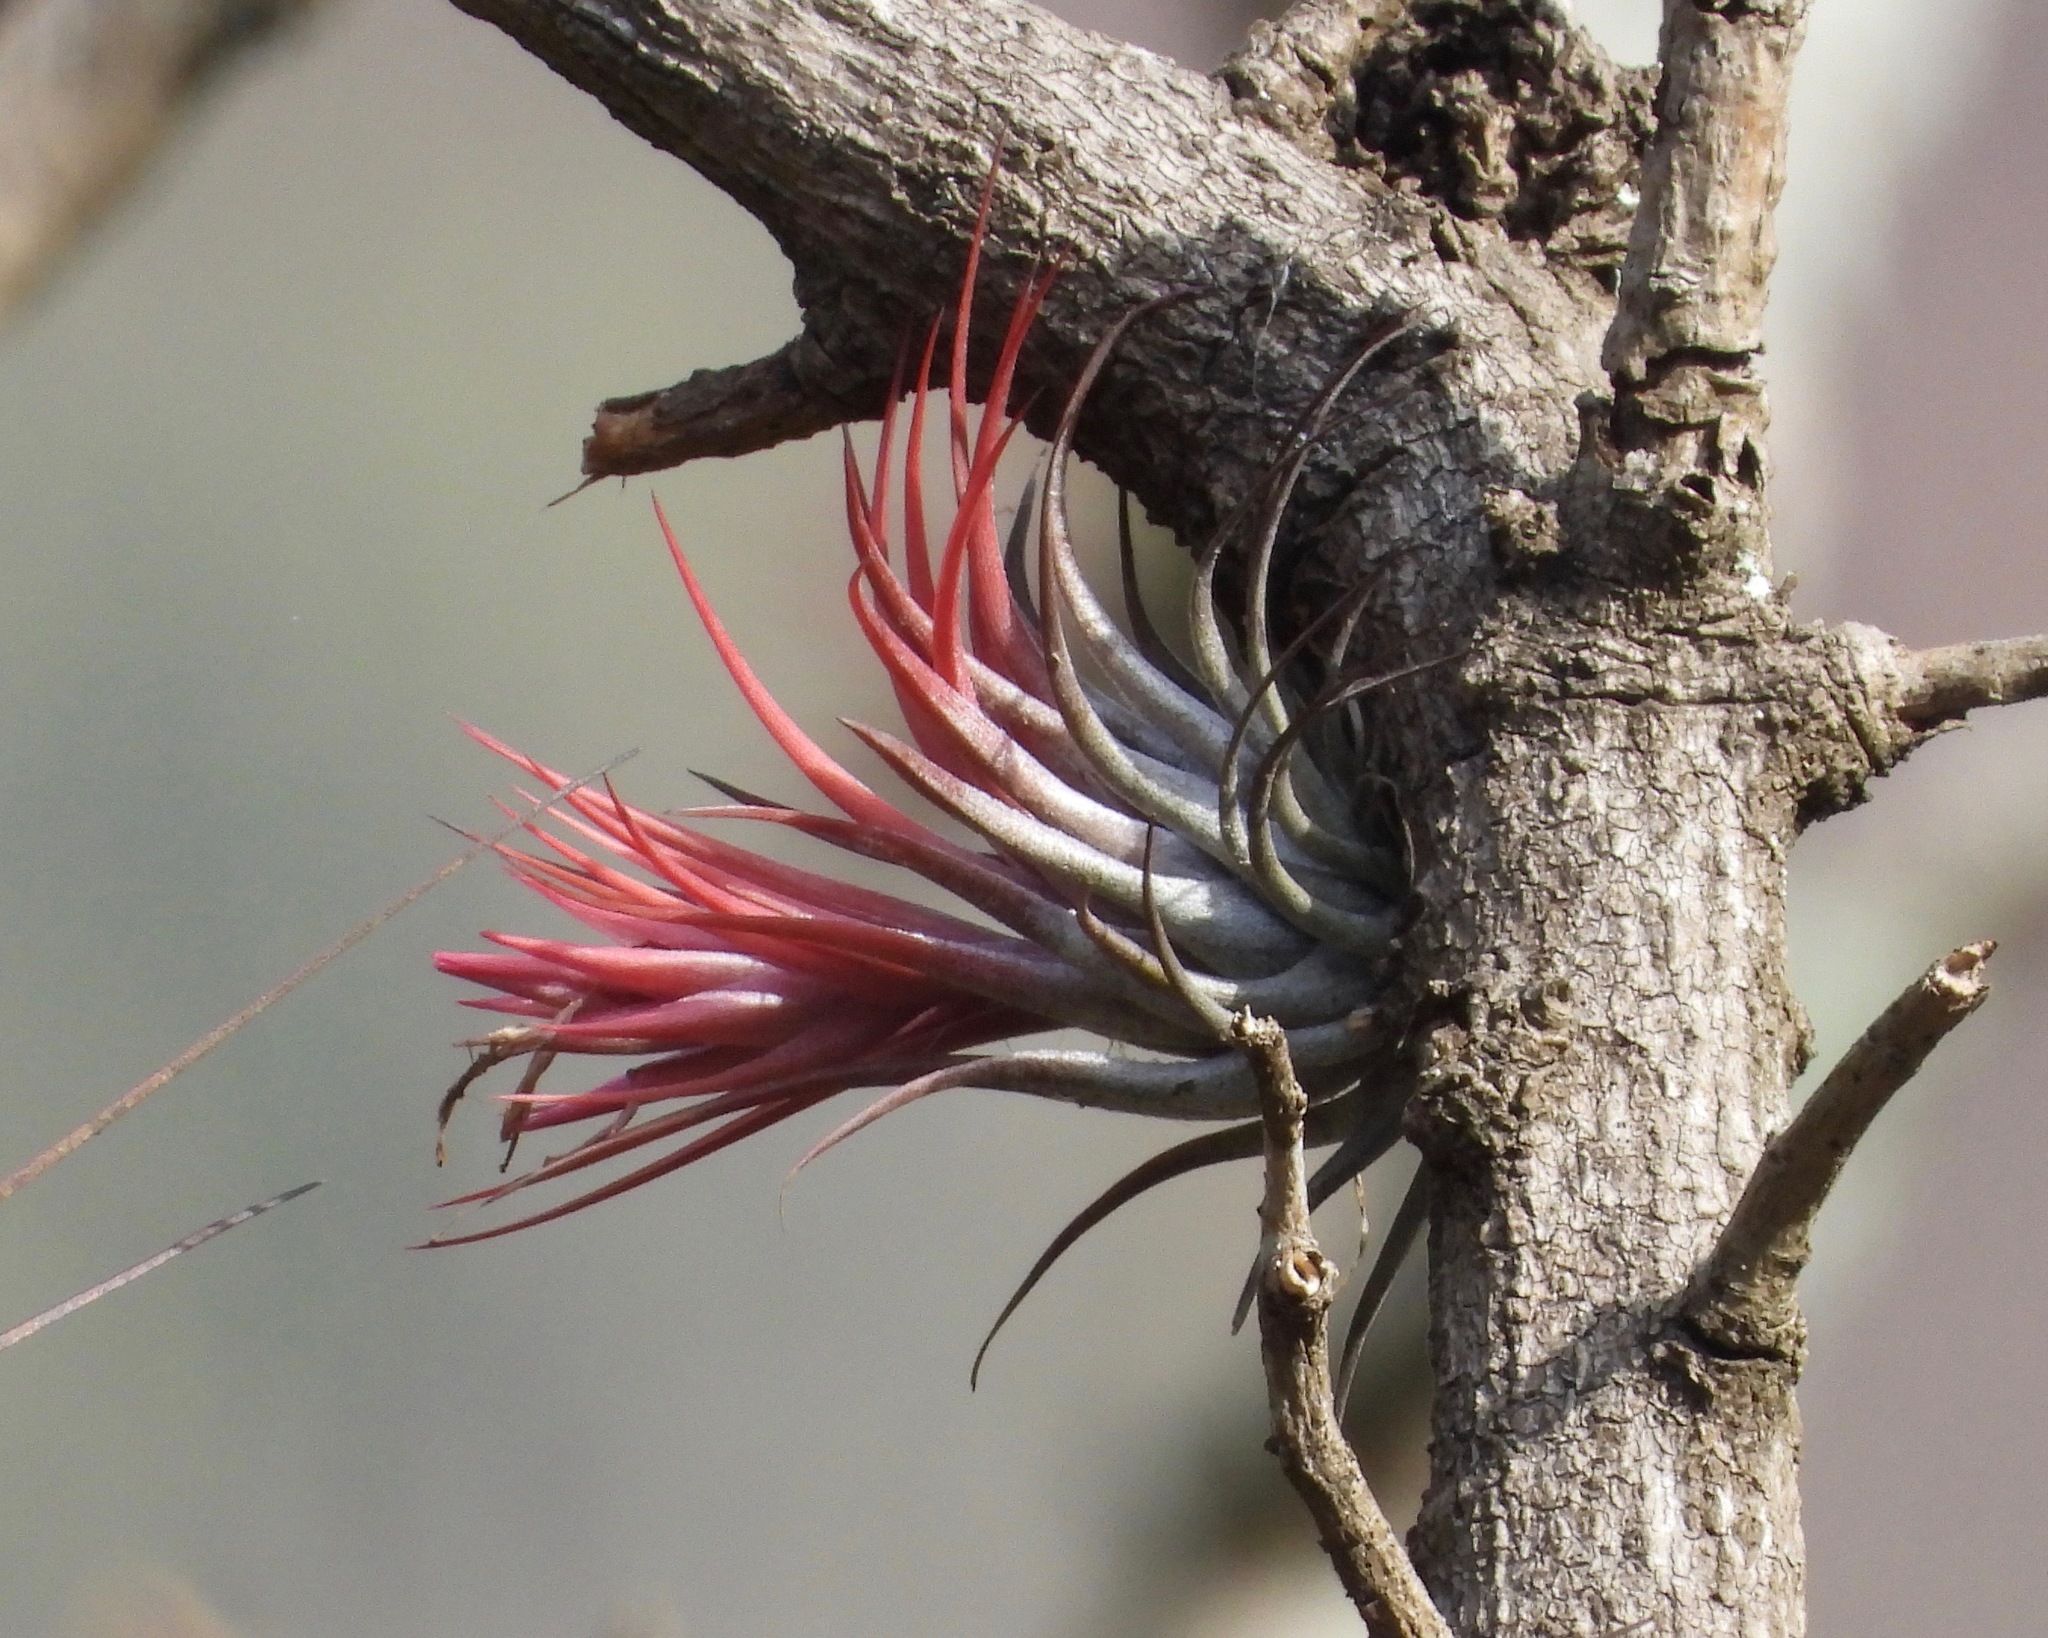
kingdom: Plantae
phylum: Tracheophyta
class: Liliopsida
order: Poales
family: Bromeliaceae
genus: Tillandsia
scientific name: Tillandsia kolbii
